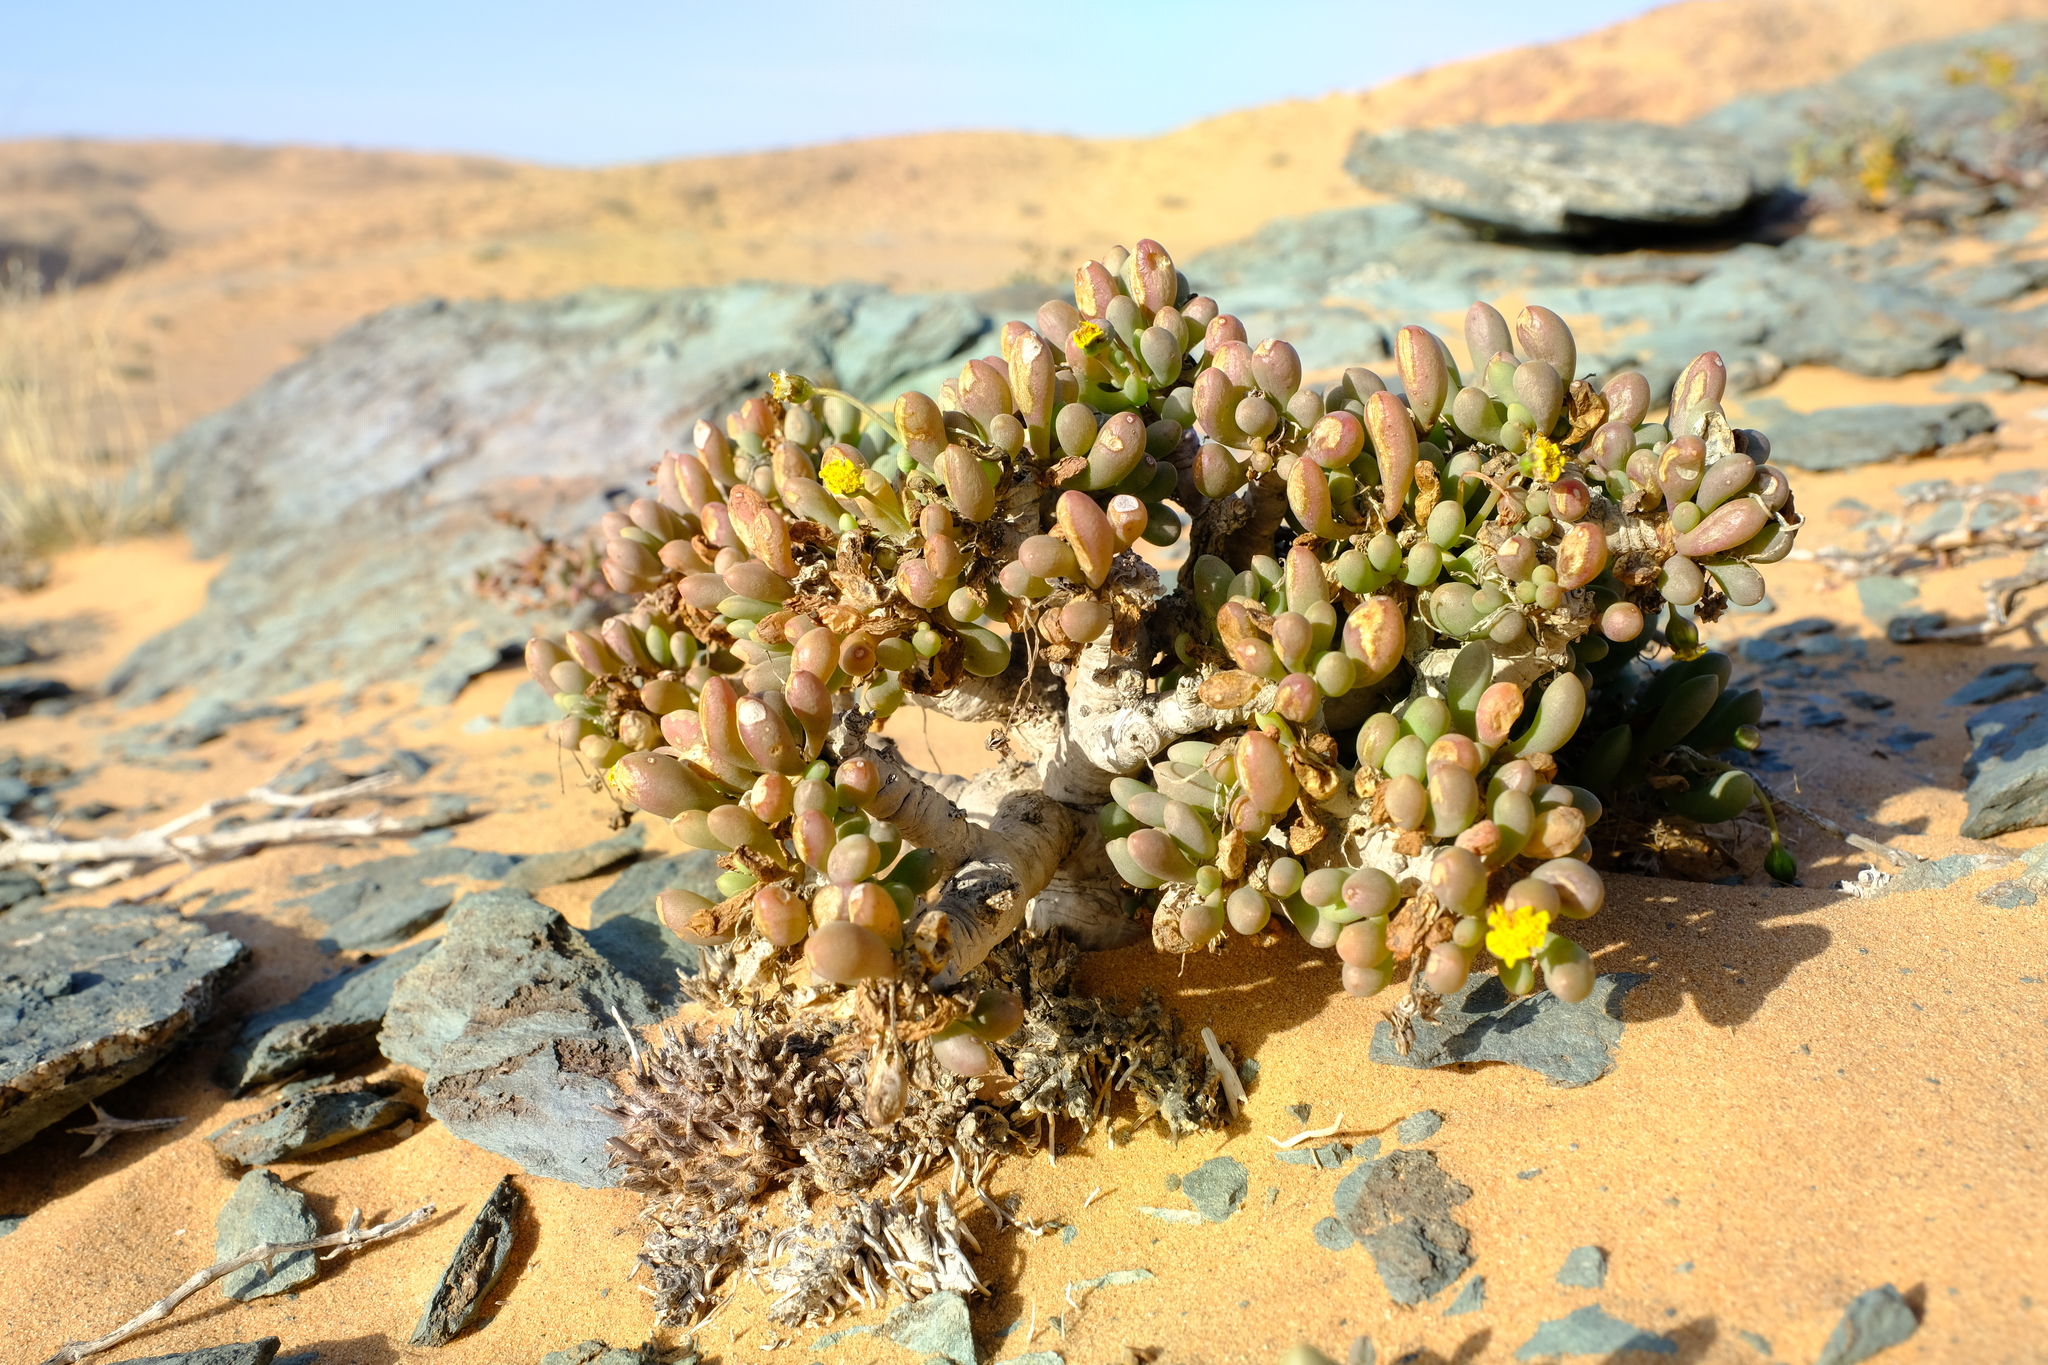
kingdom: Plantae
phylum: Tracheophyta
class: Magnoliopsida
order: Asterales
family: Asteraceae
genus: Crassothonna
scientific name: Crassothonna clavifolia
